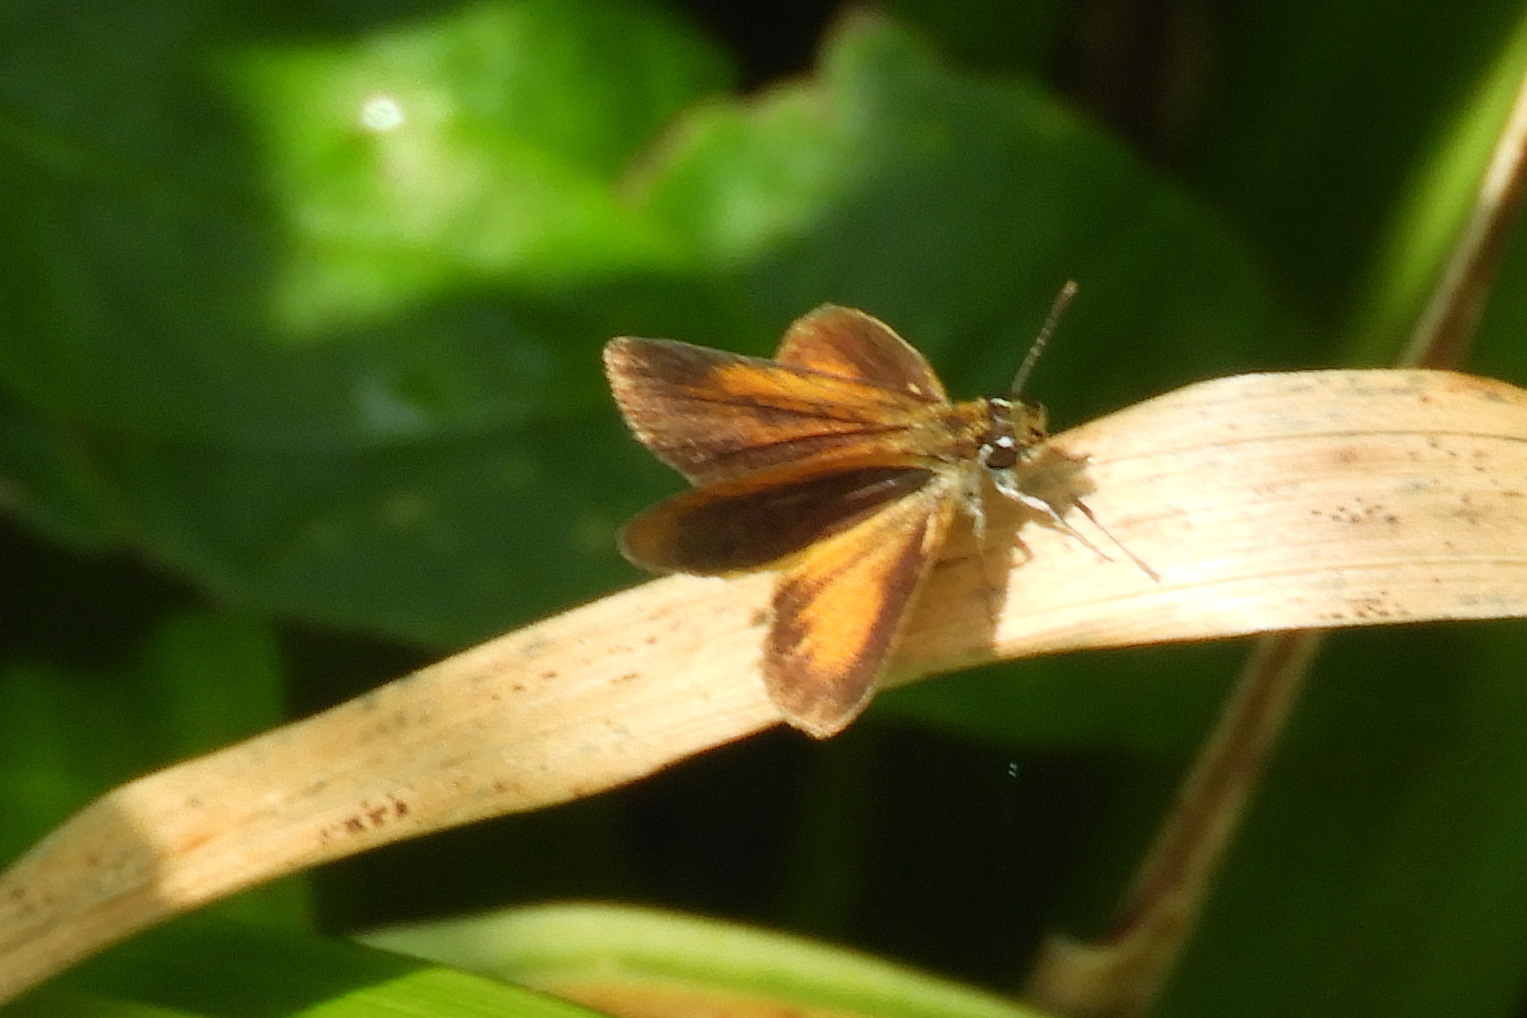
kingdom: Animalia
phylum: Arthropoda
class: Insecta
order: Lepidoptera
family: Hesperiidae
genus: Ancyloxypha
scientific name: Ancyloxypha numitor
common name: Least skipper
